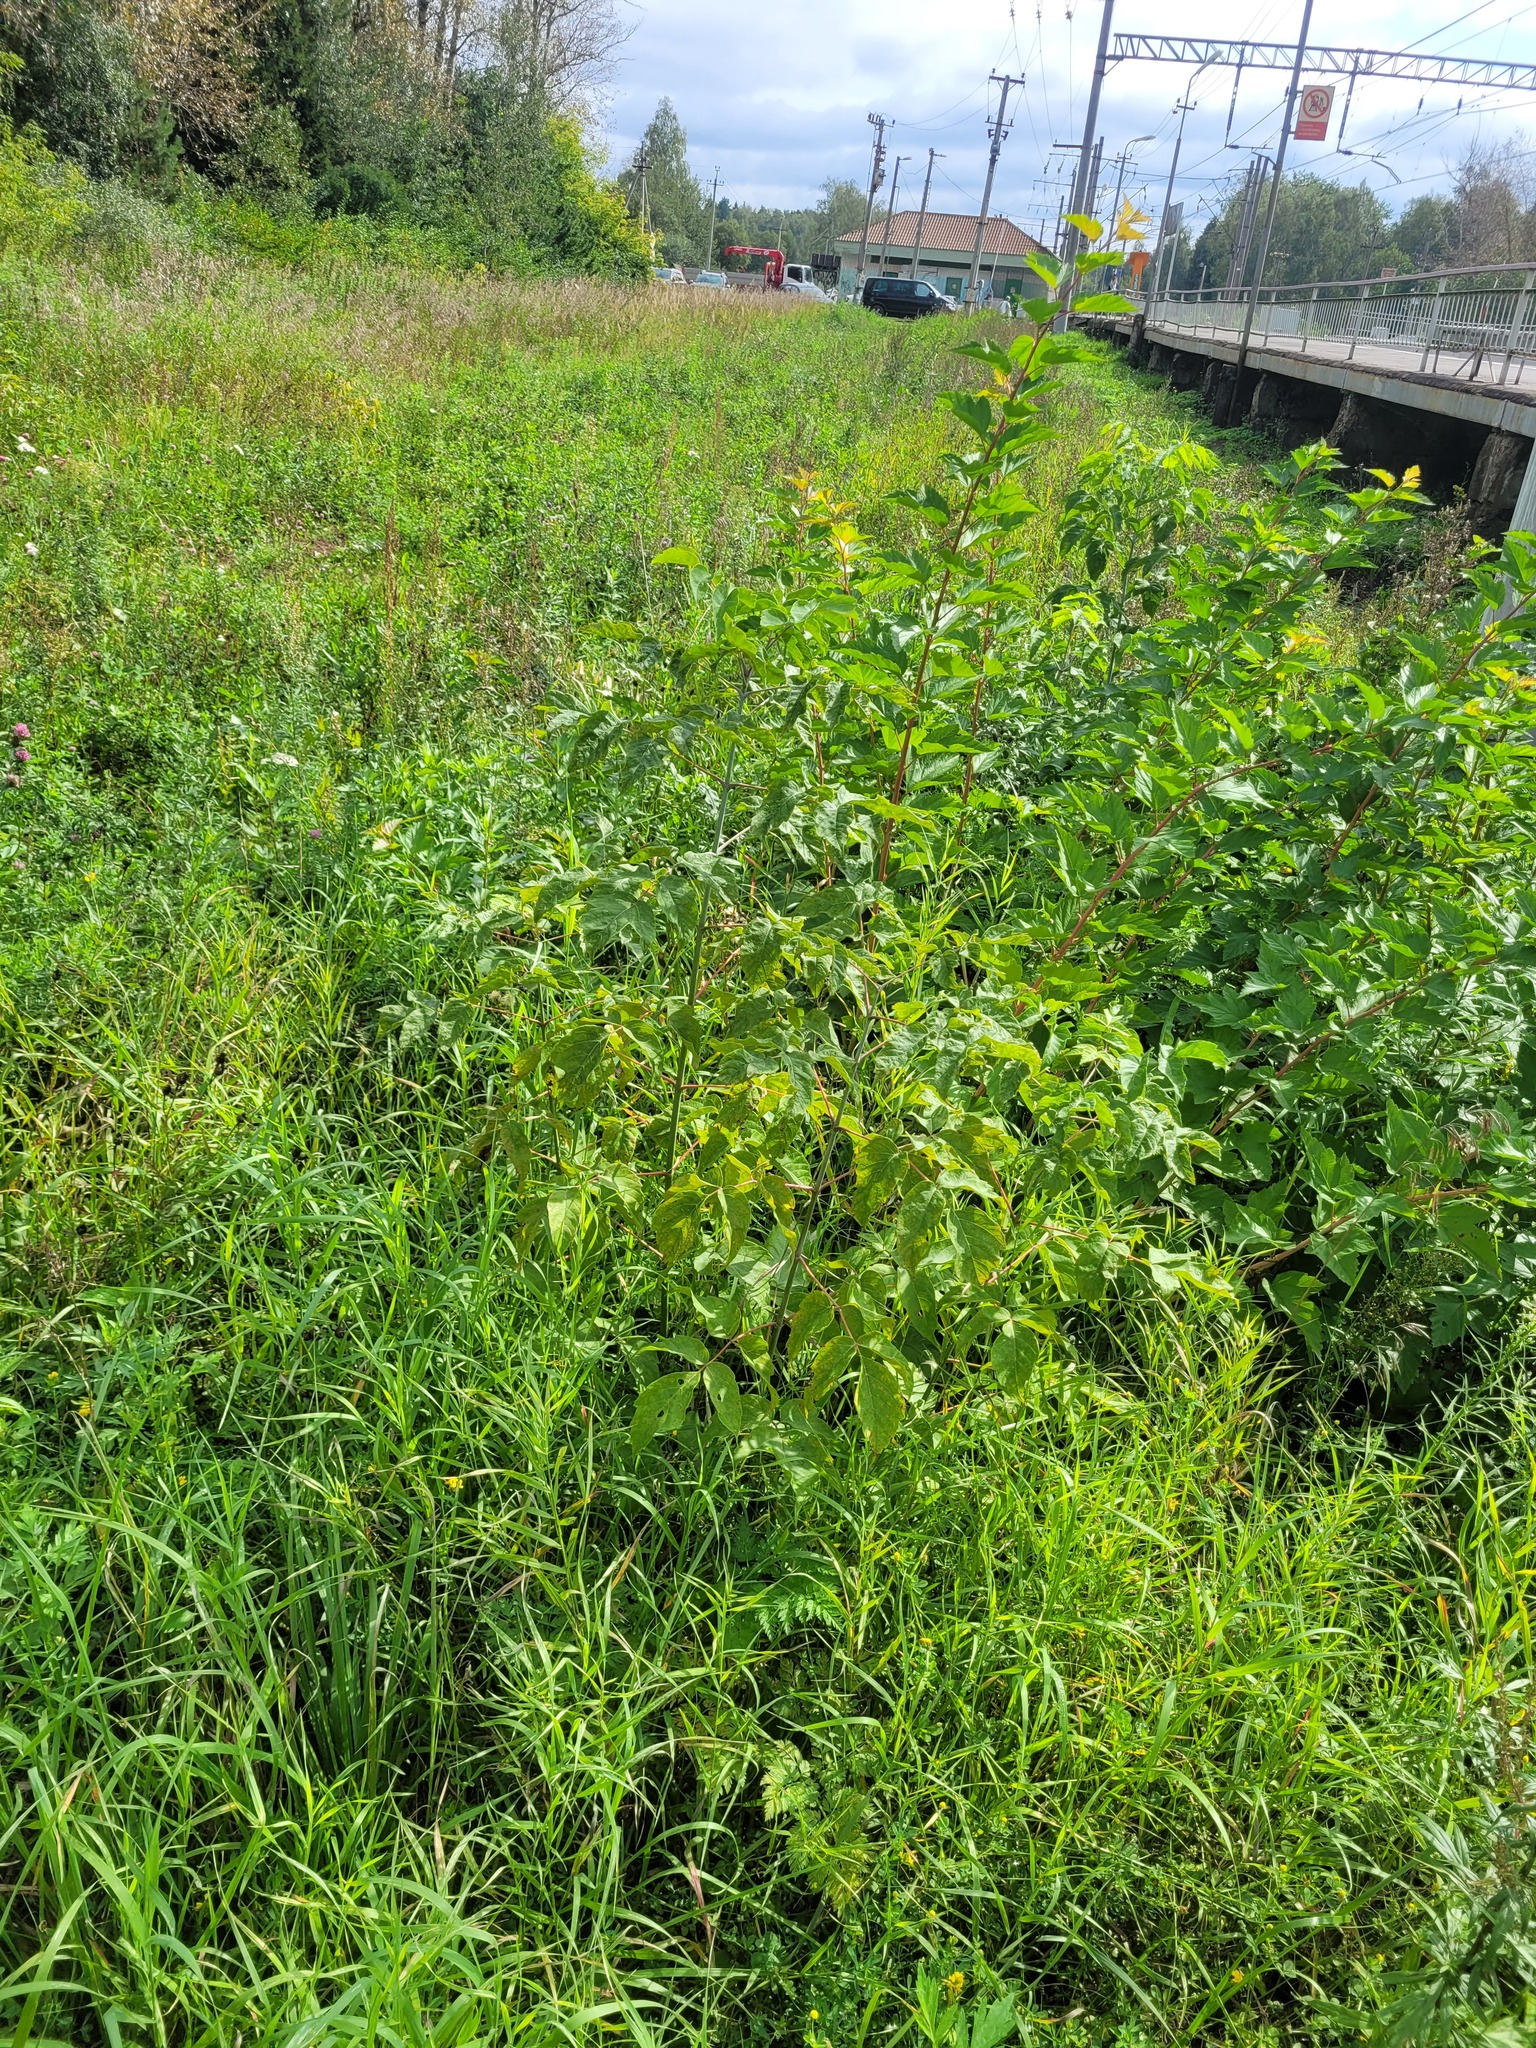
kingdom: Plantae
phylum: Tracheophyta
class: Magnoliopsida
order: Sapindales
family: Sapindaceae
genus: Acer
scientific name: Acer negundo
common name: Ashleaf maple
